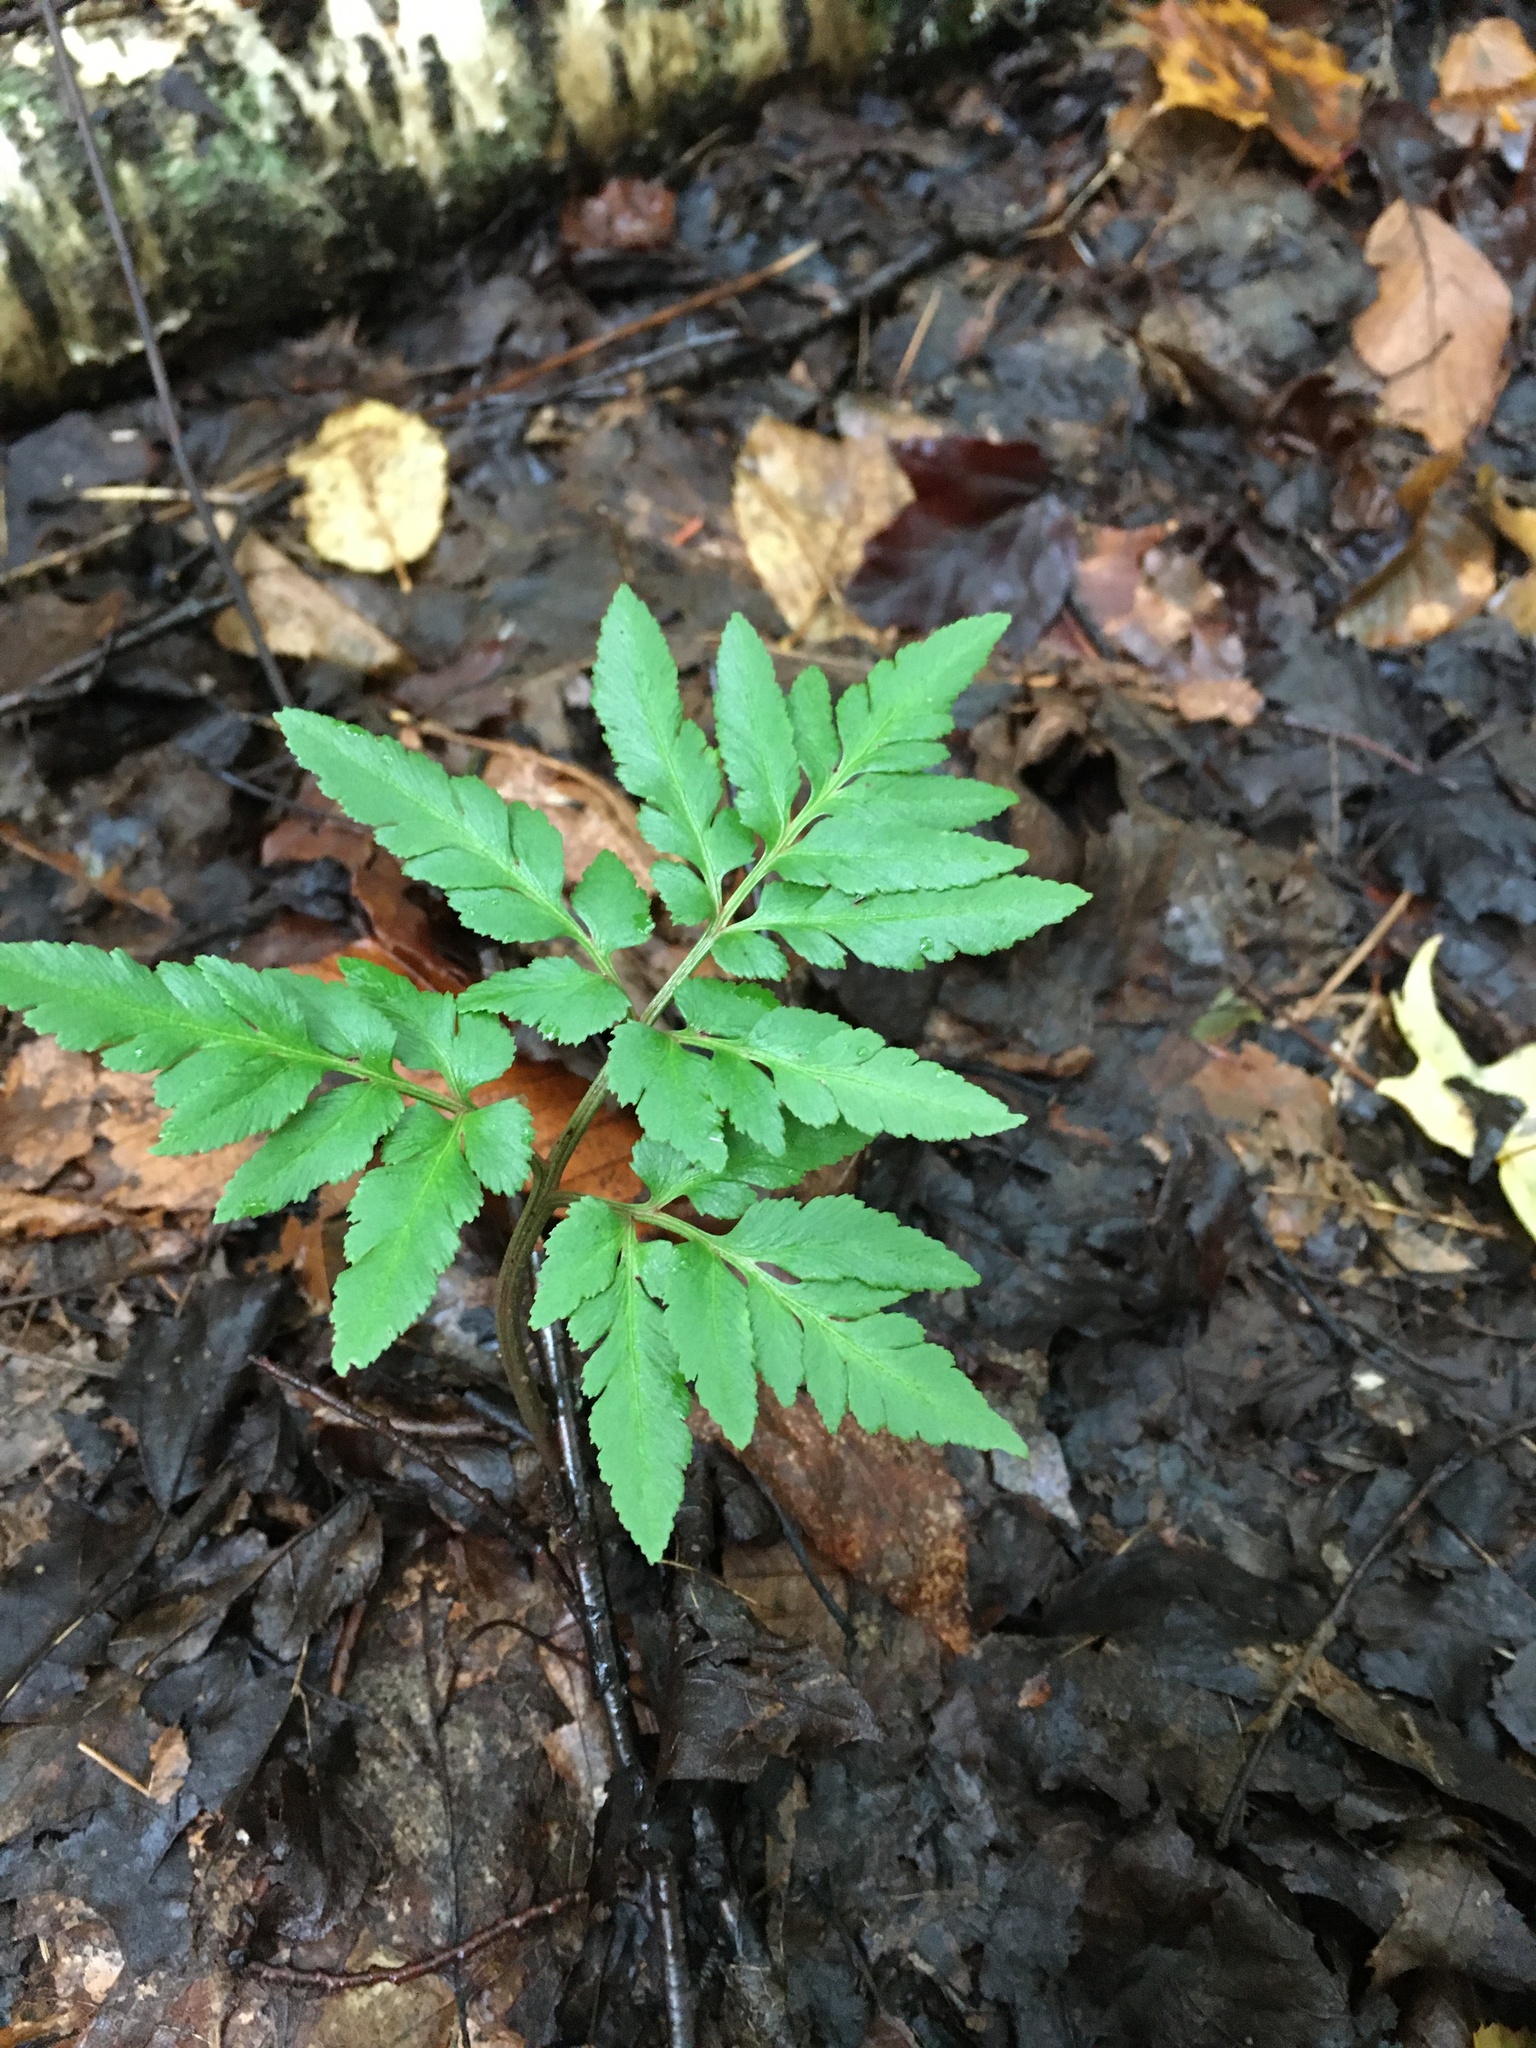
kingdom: Plantae
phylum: Tracheophyta
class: Polypodiopsida
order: Ophioglossales
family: Ophioglossaceae
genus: Sceptridium
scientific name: Sceptridium dissectum
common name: Cut-leaved grapefern
